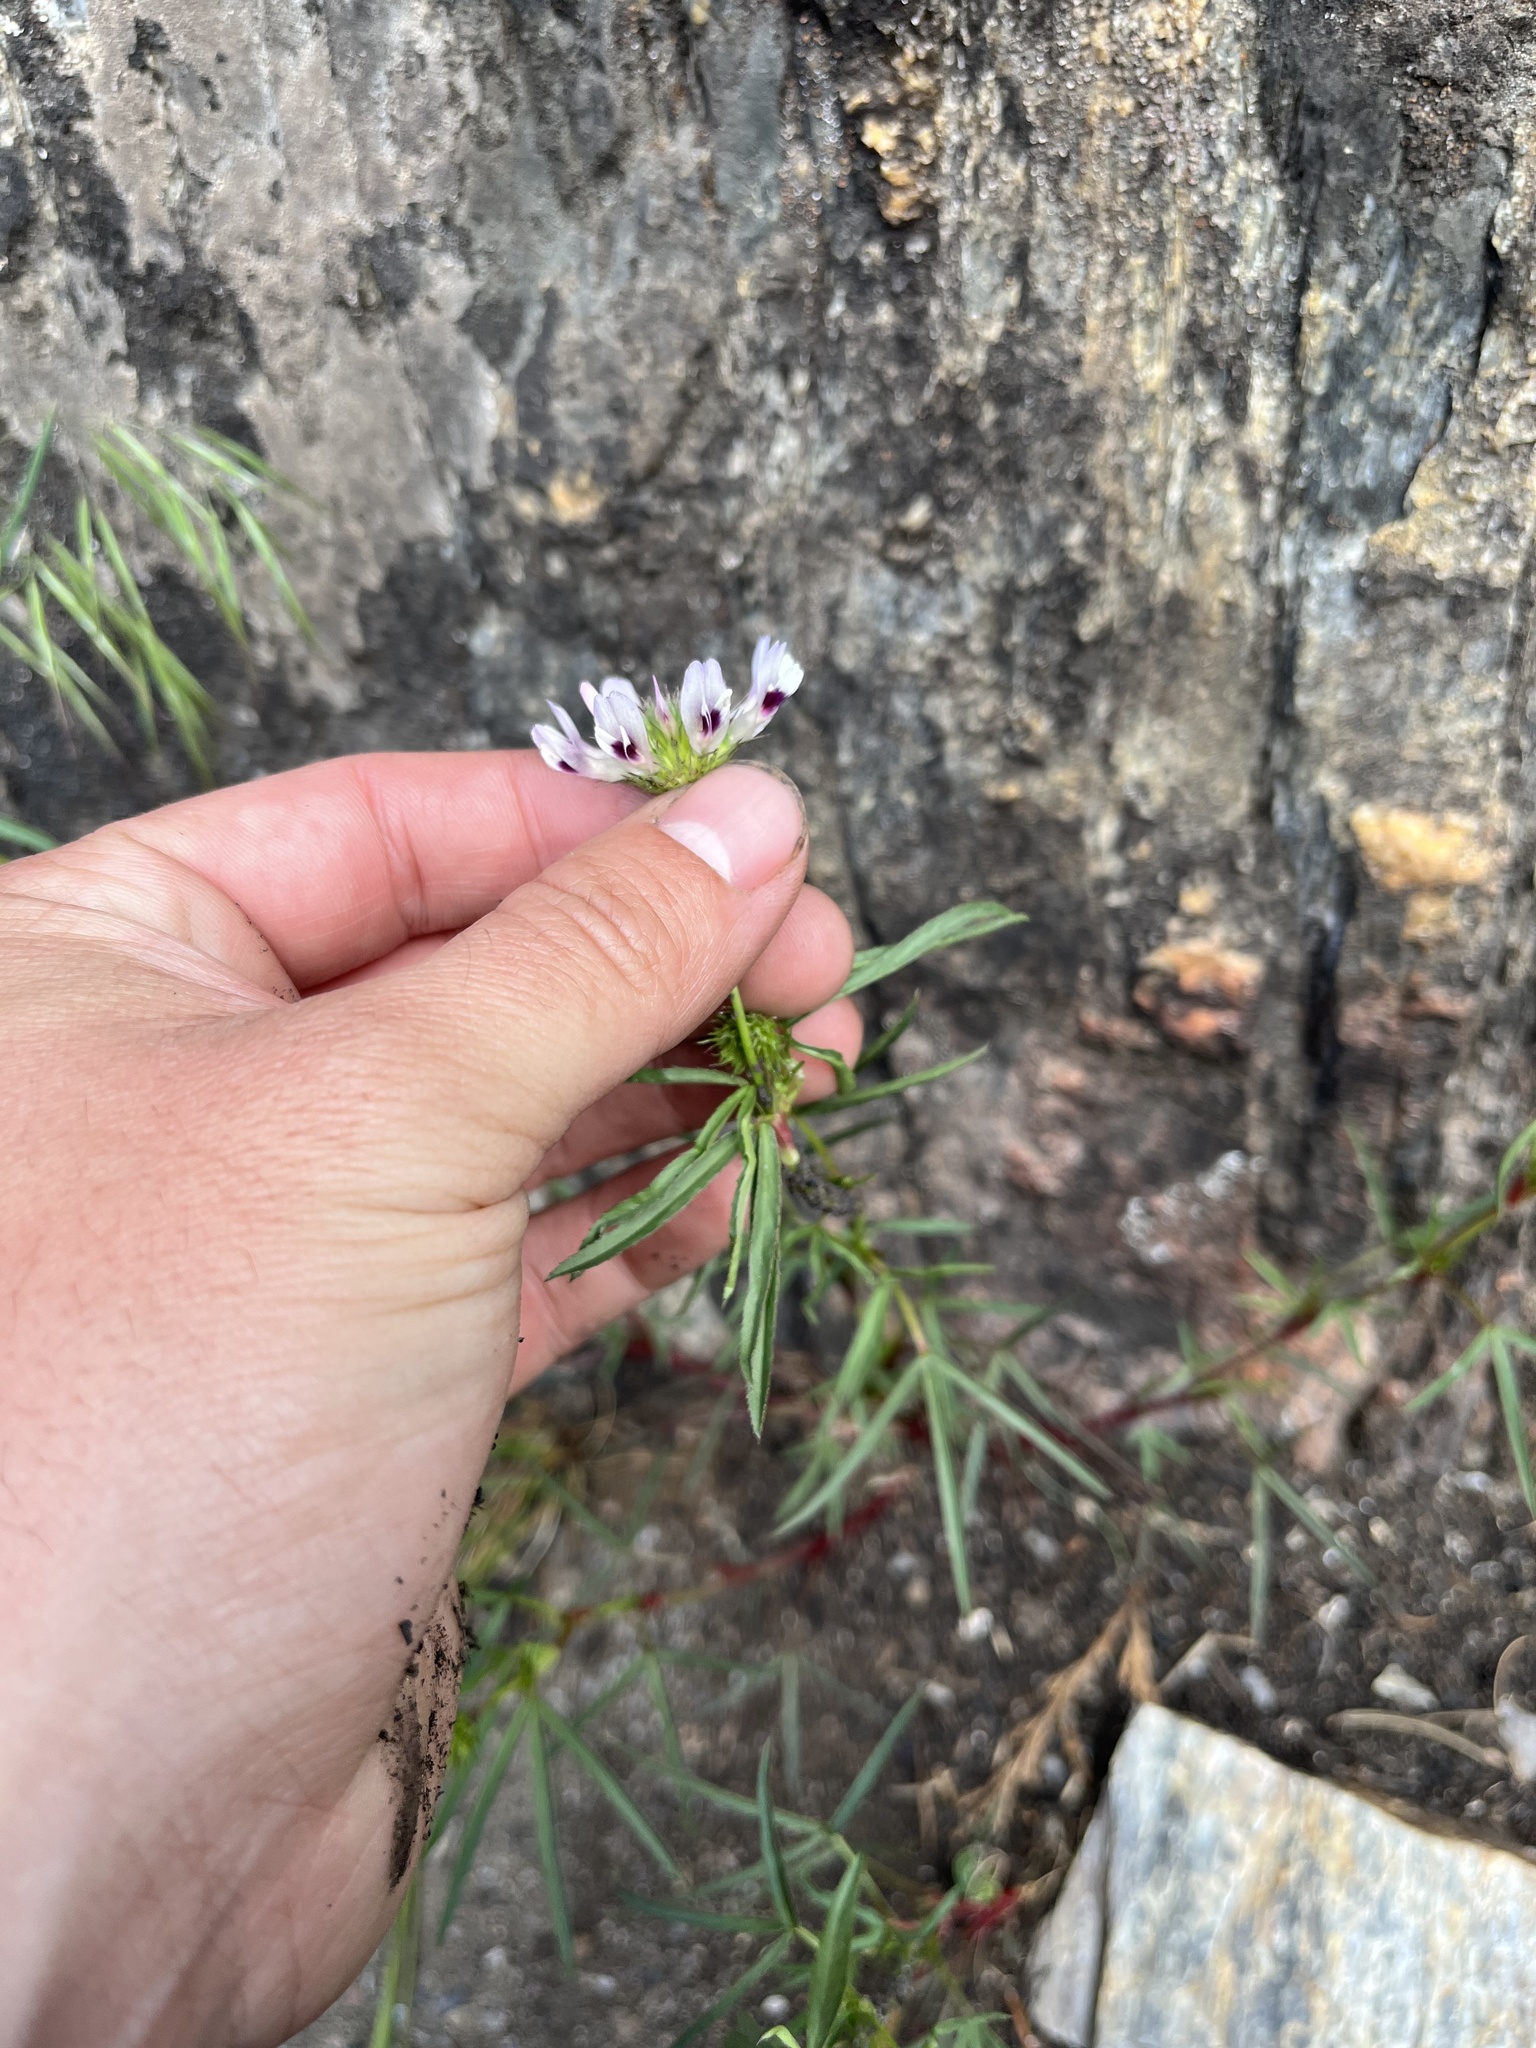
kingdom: Plantae
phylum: Tracheophyta
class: Magnoliopsida
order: Fabales
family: Fabaceae
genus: Trifolium
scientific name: Trifolium willdenovii
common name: Tomcat clover
